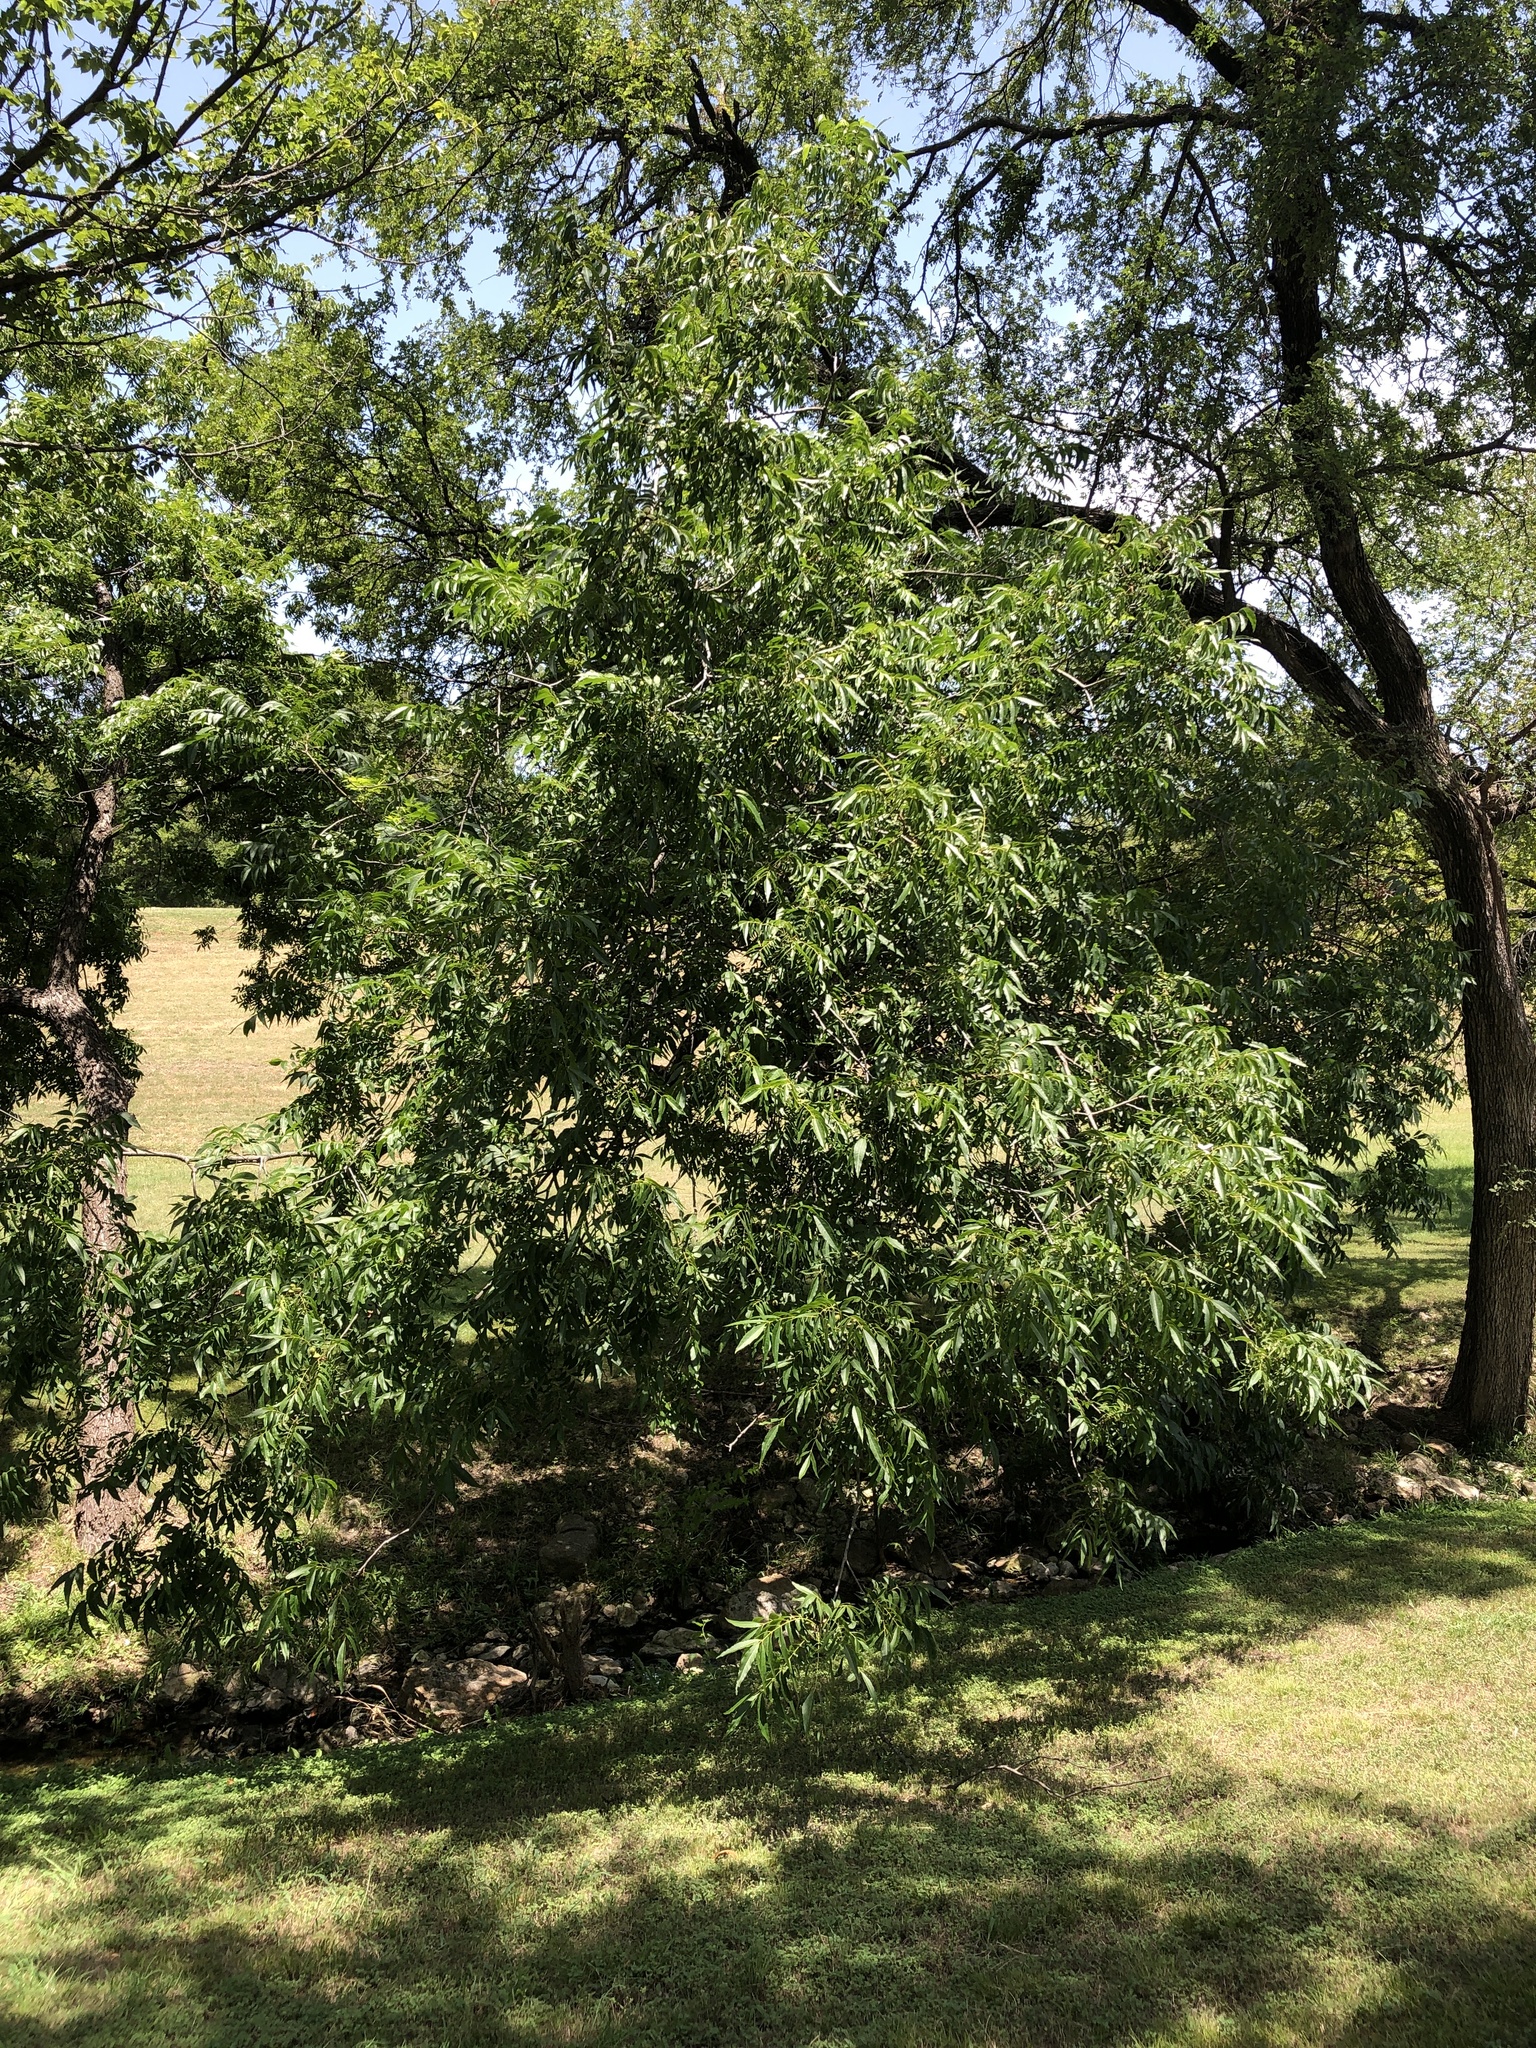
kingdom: Plantae
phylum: Tracheophyta
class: Magnoliopsida
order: Fagales
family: Juglandaceae
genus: Carya
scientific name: Carya illinoinensis
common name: Pecan
